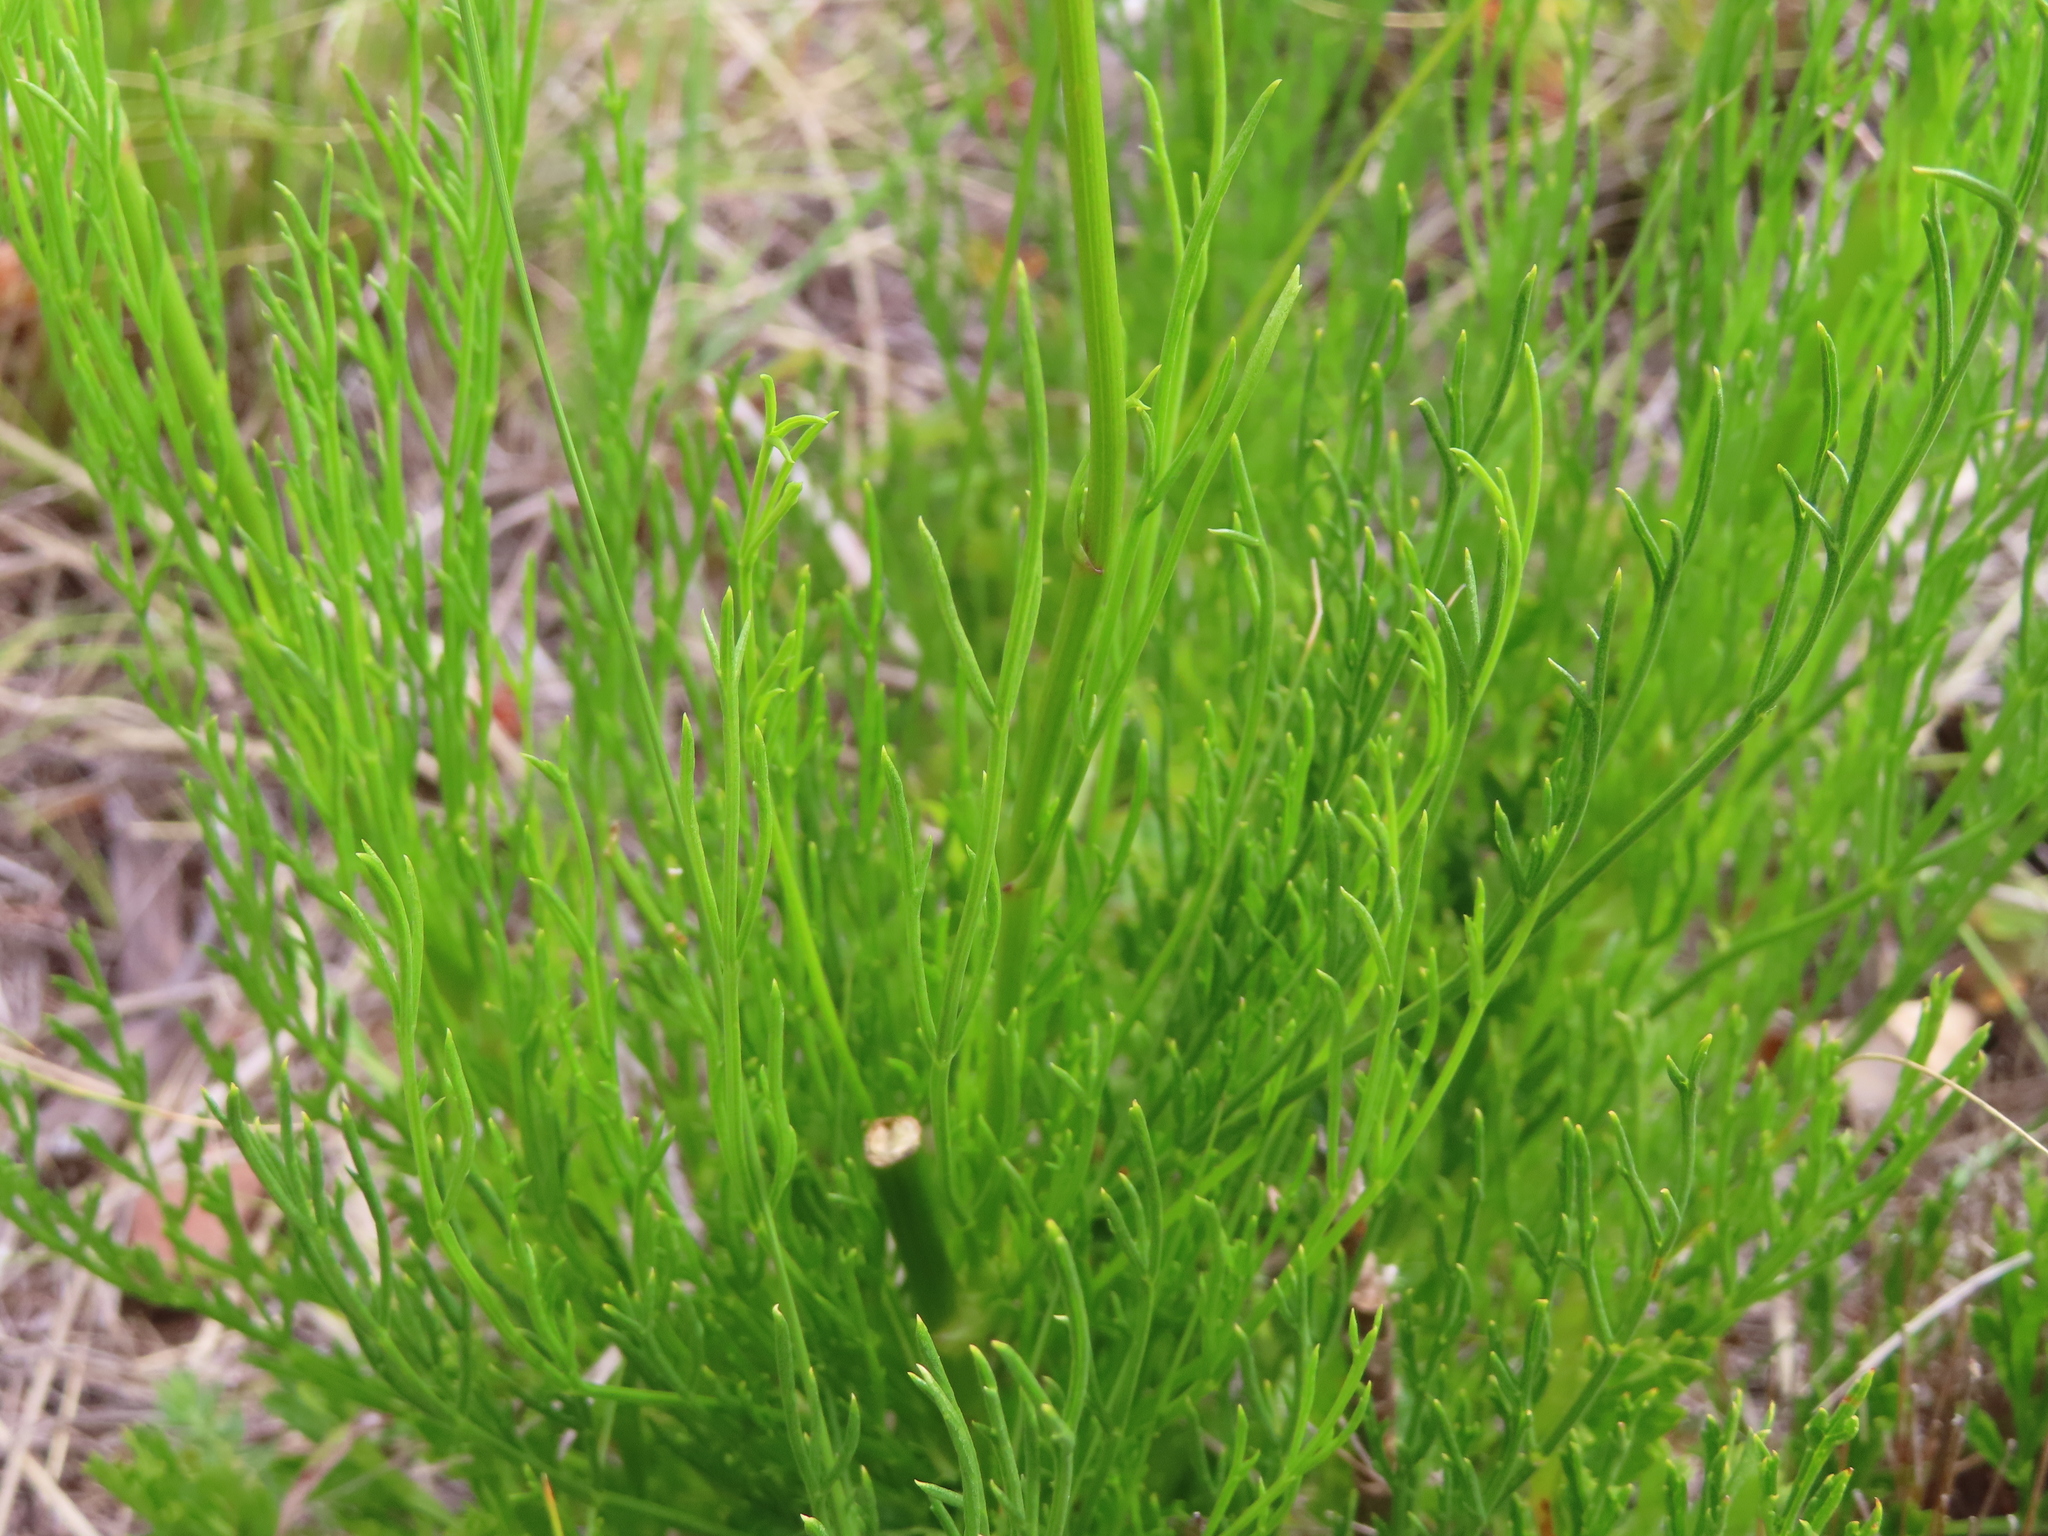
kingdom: Plantae
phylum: Tracheophyta
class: Magnoliopsida
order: Apiales
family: Apiaceae
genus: Glia
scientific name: Glia prolifera
